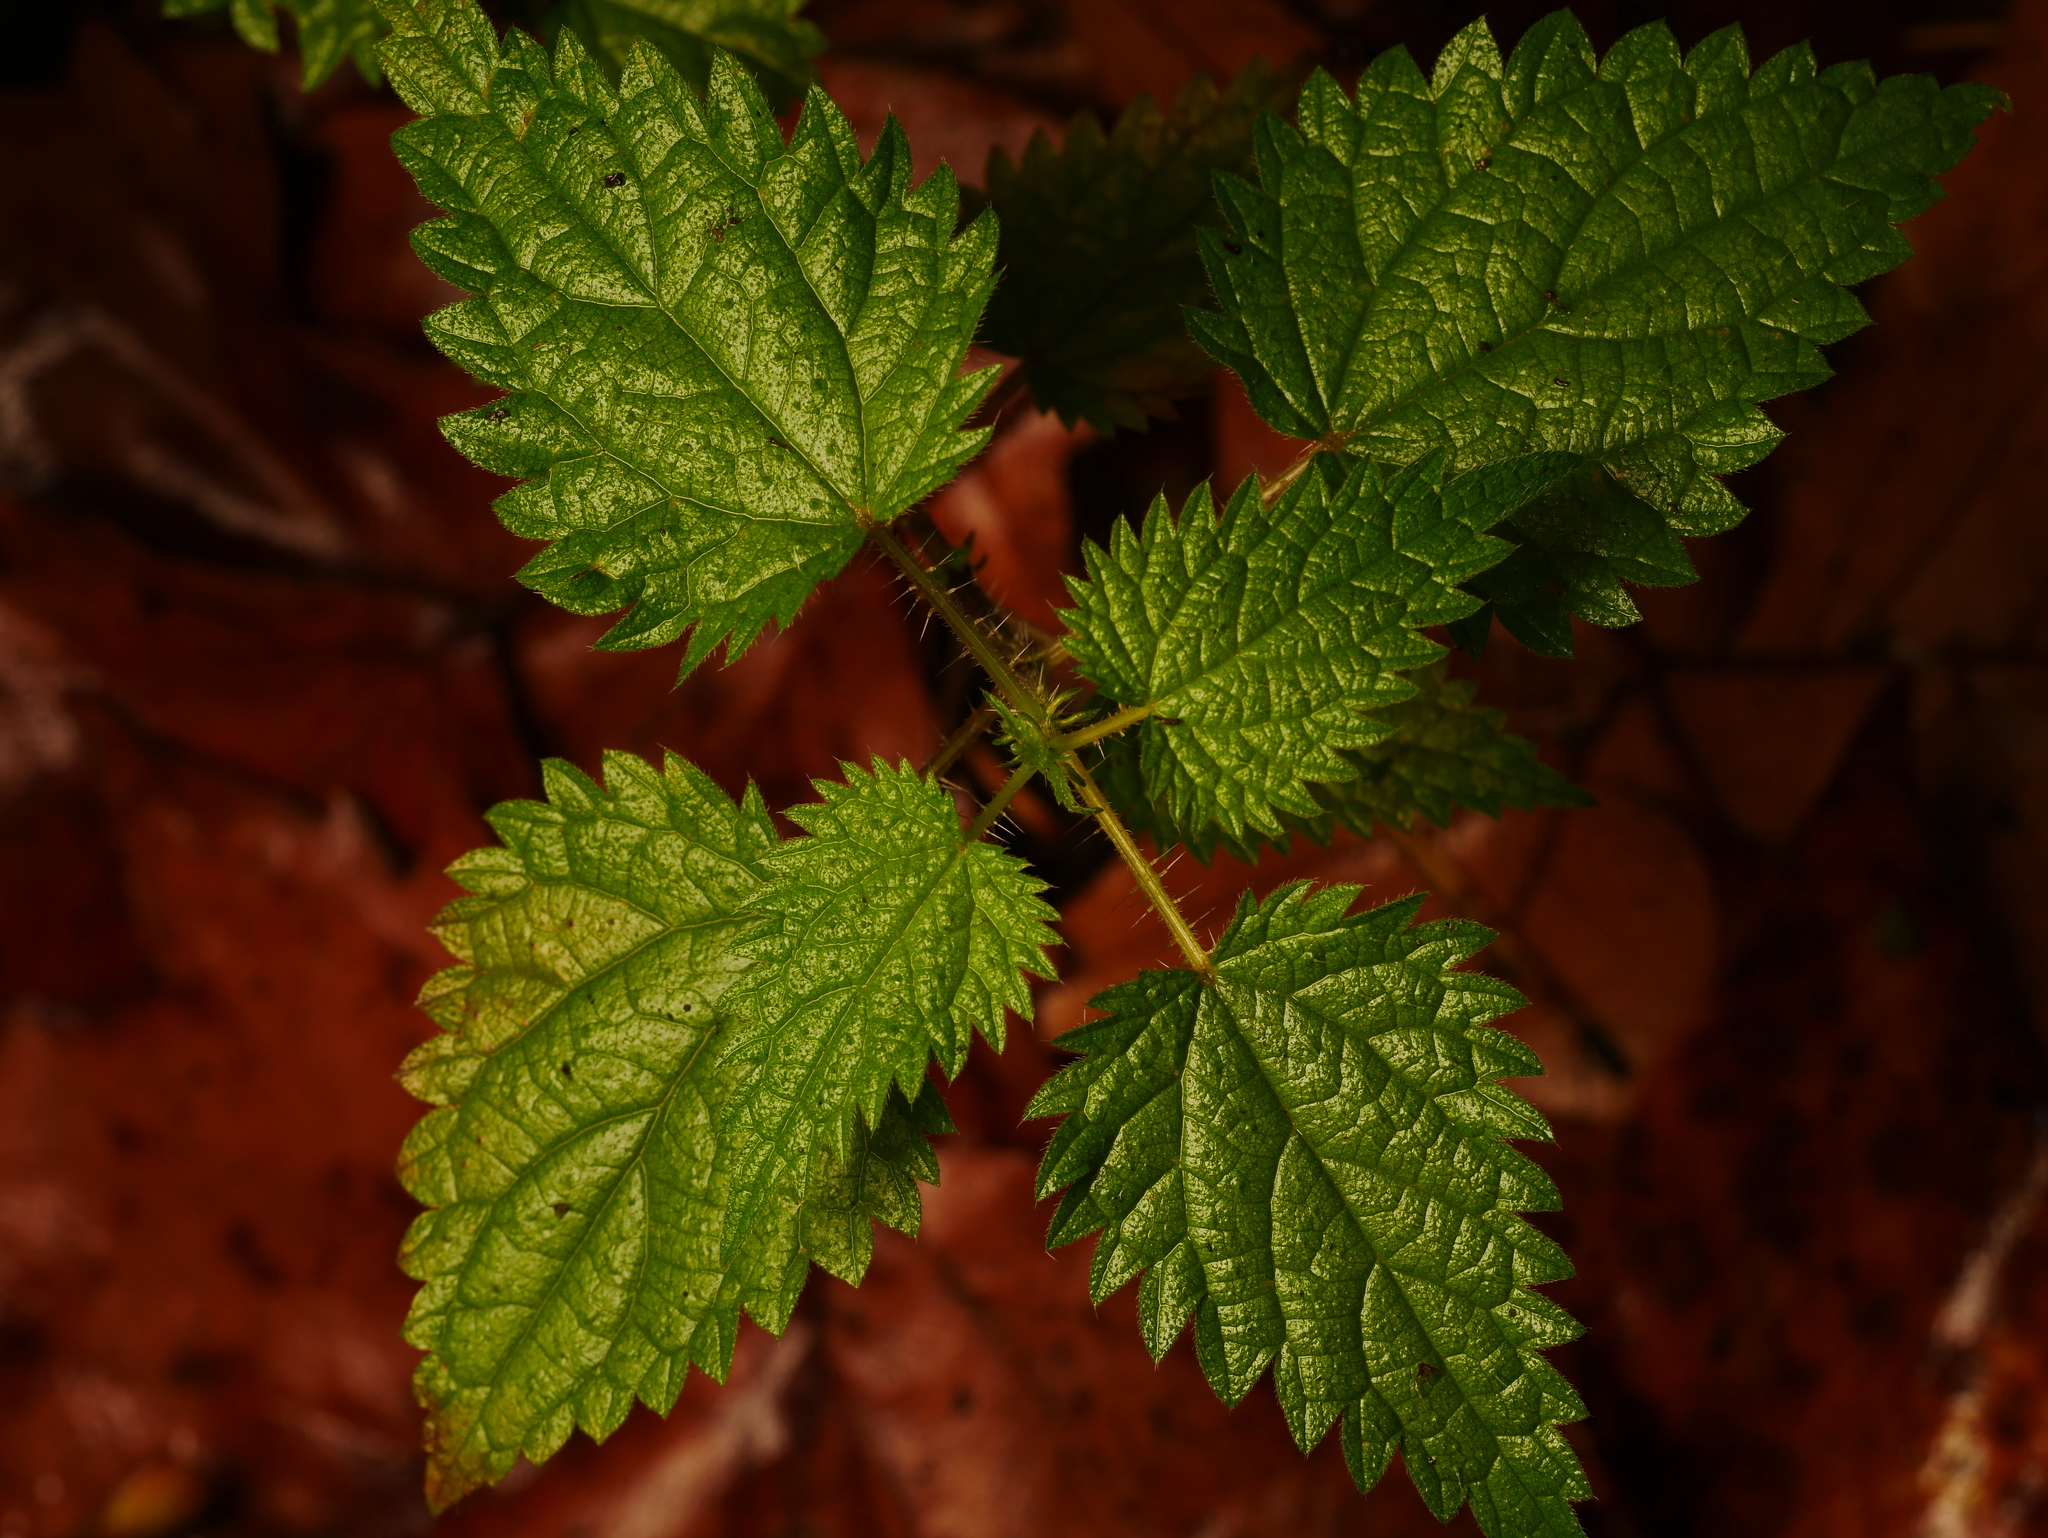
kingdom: Plantae
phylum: Tracheophyta
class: Magnoliopsida
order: Rosales
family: Urticaceae
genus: Urtica
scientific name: Urtica dioica
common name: Common nettle
